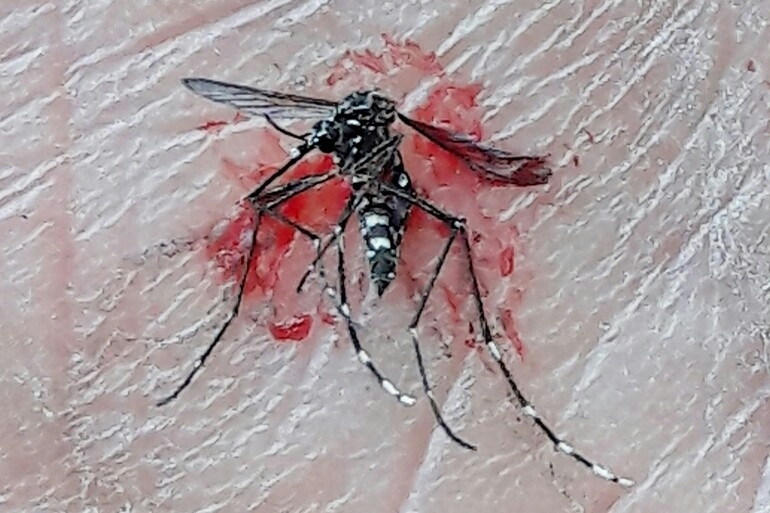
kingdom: Animalia
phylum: Arthropoda
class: Insecta
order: Diptera
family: Culicidae
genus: Aedes
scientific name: Aedes aegypti
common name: Yellow fever mosquito
